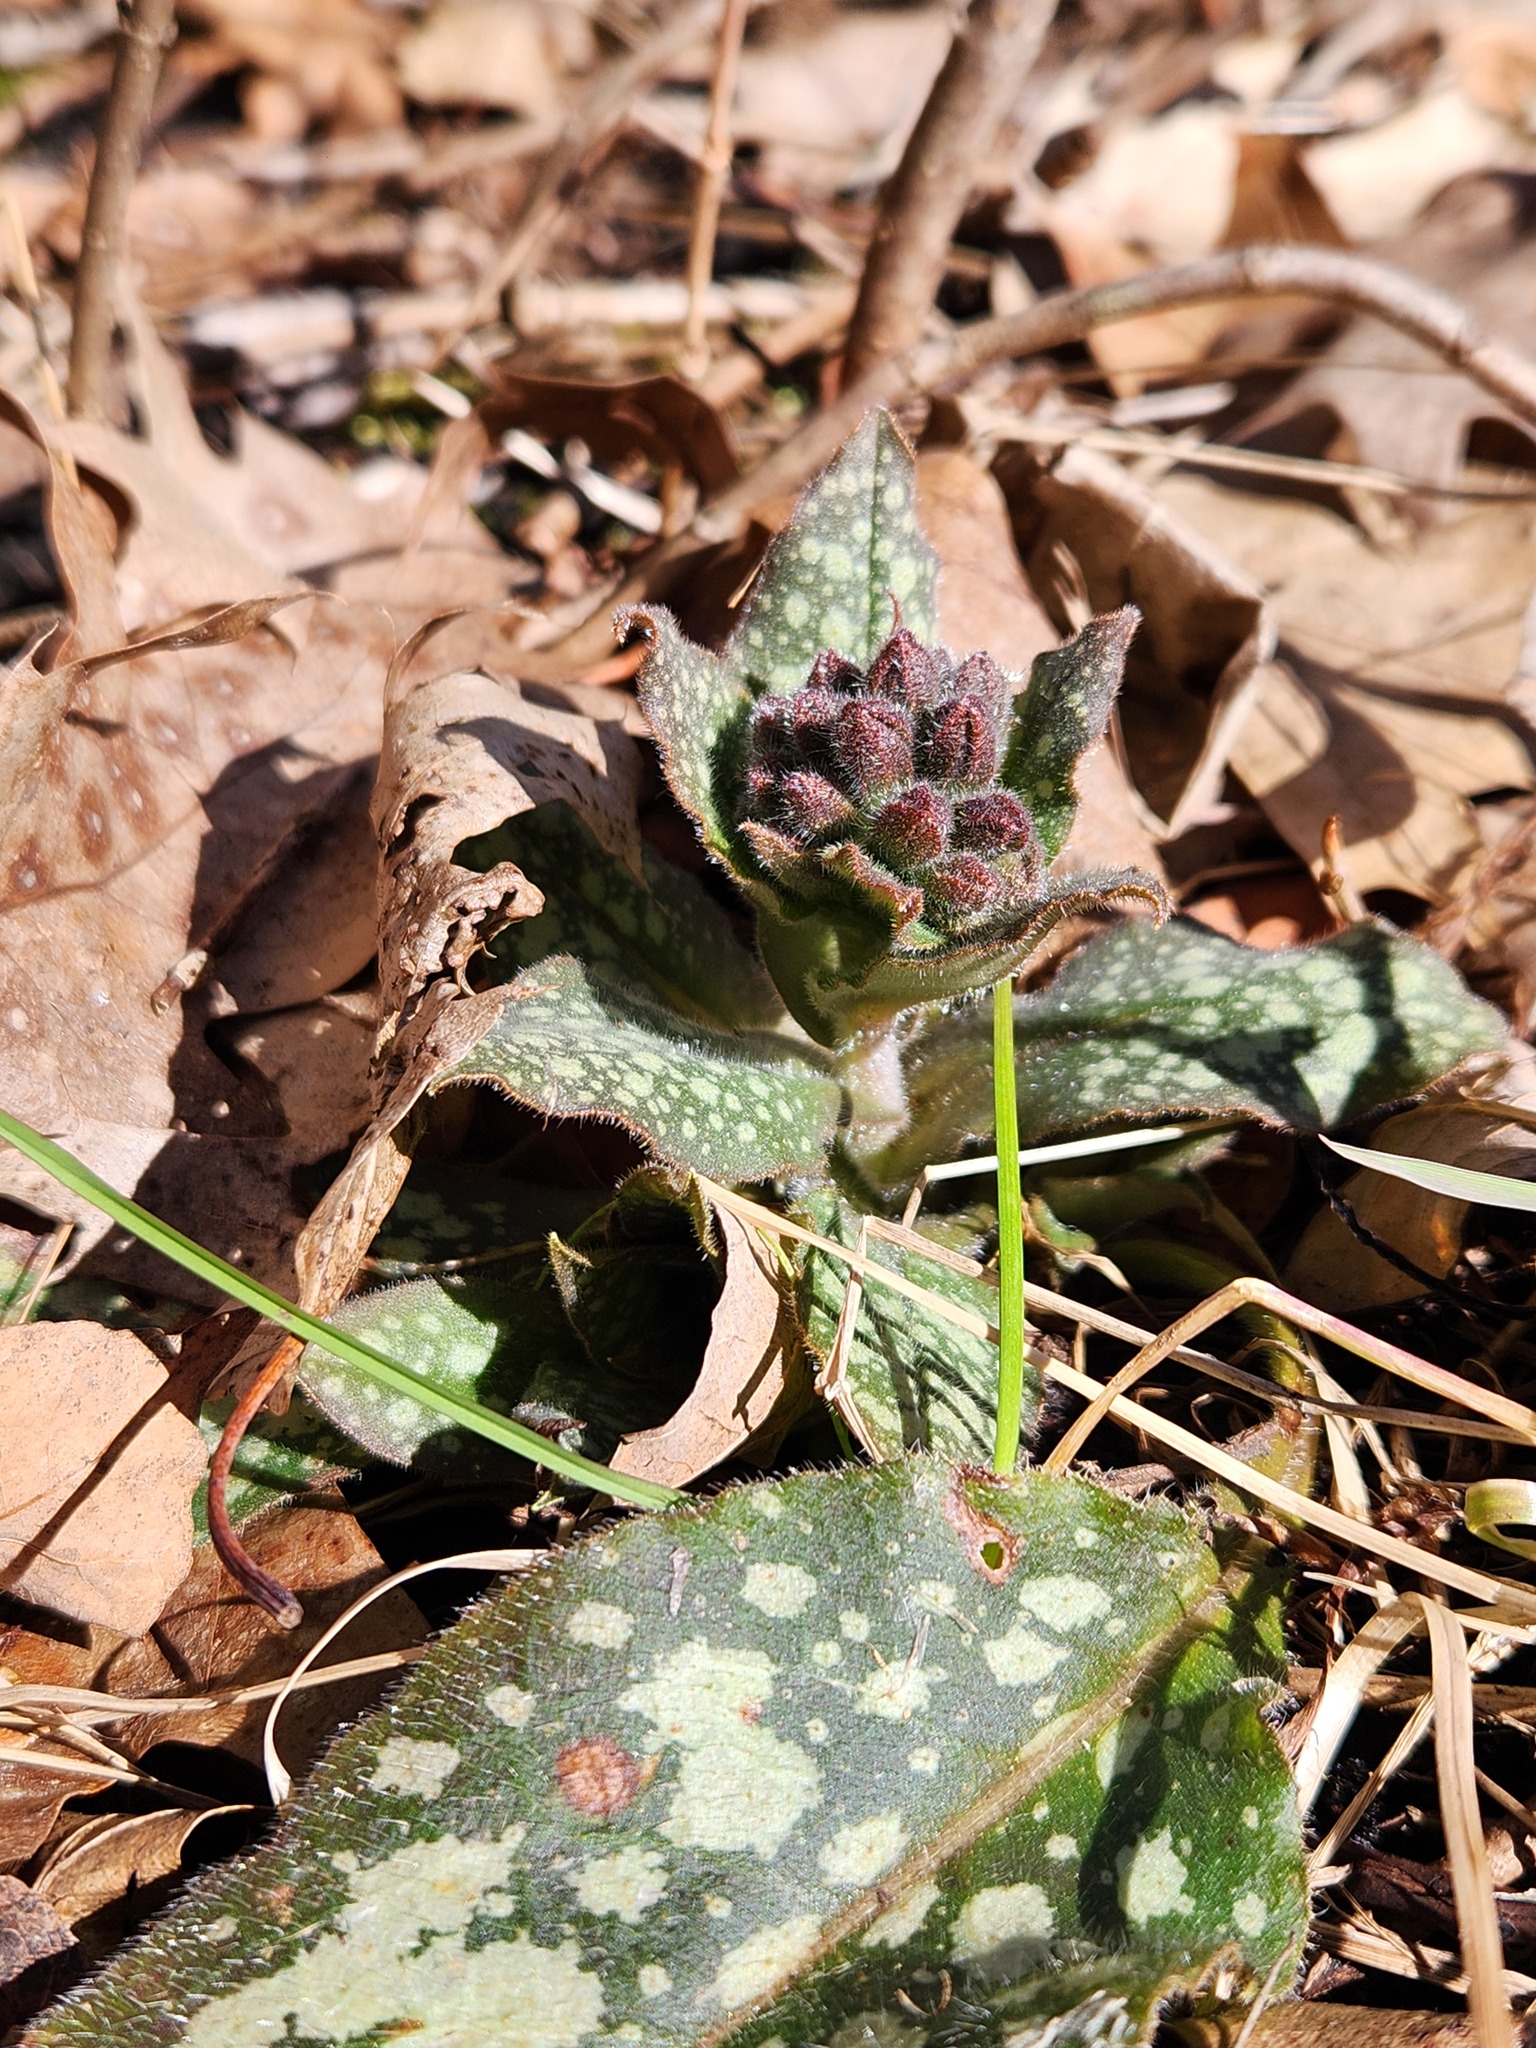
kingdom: Plantae
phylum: Tracheophyta
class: Magnoliopsida
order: Boraginales
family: Boraginaceae
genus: Pulmonaria
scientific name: Pulmonaria officinalis
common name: Lungwort
